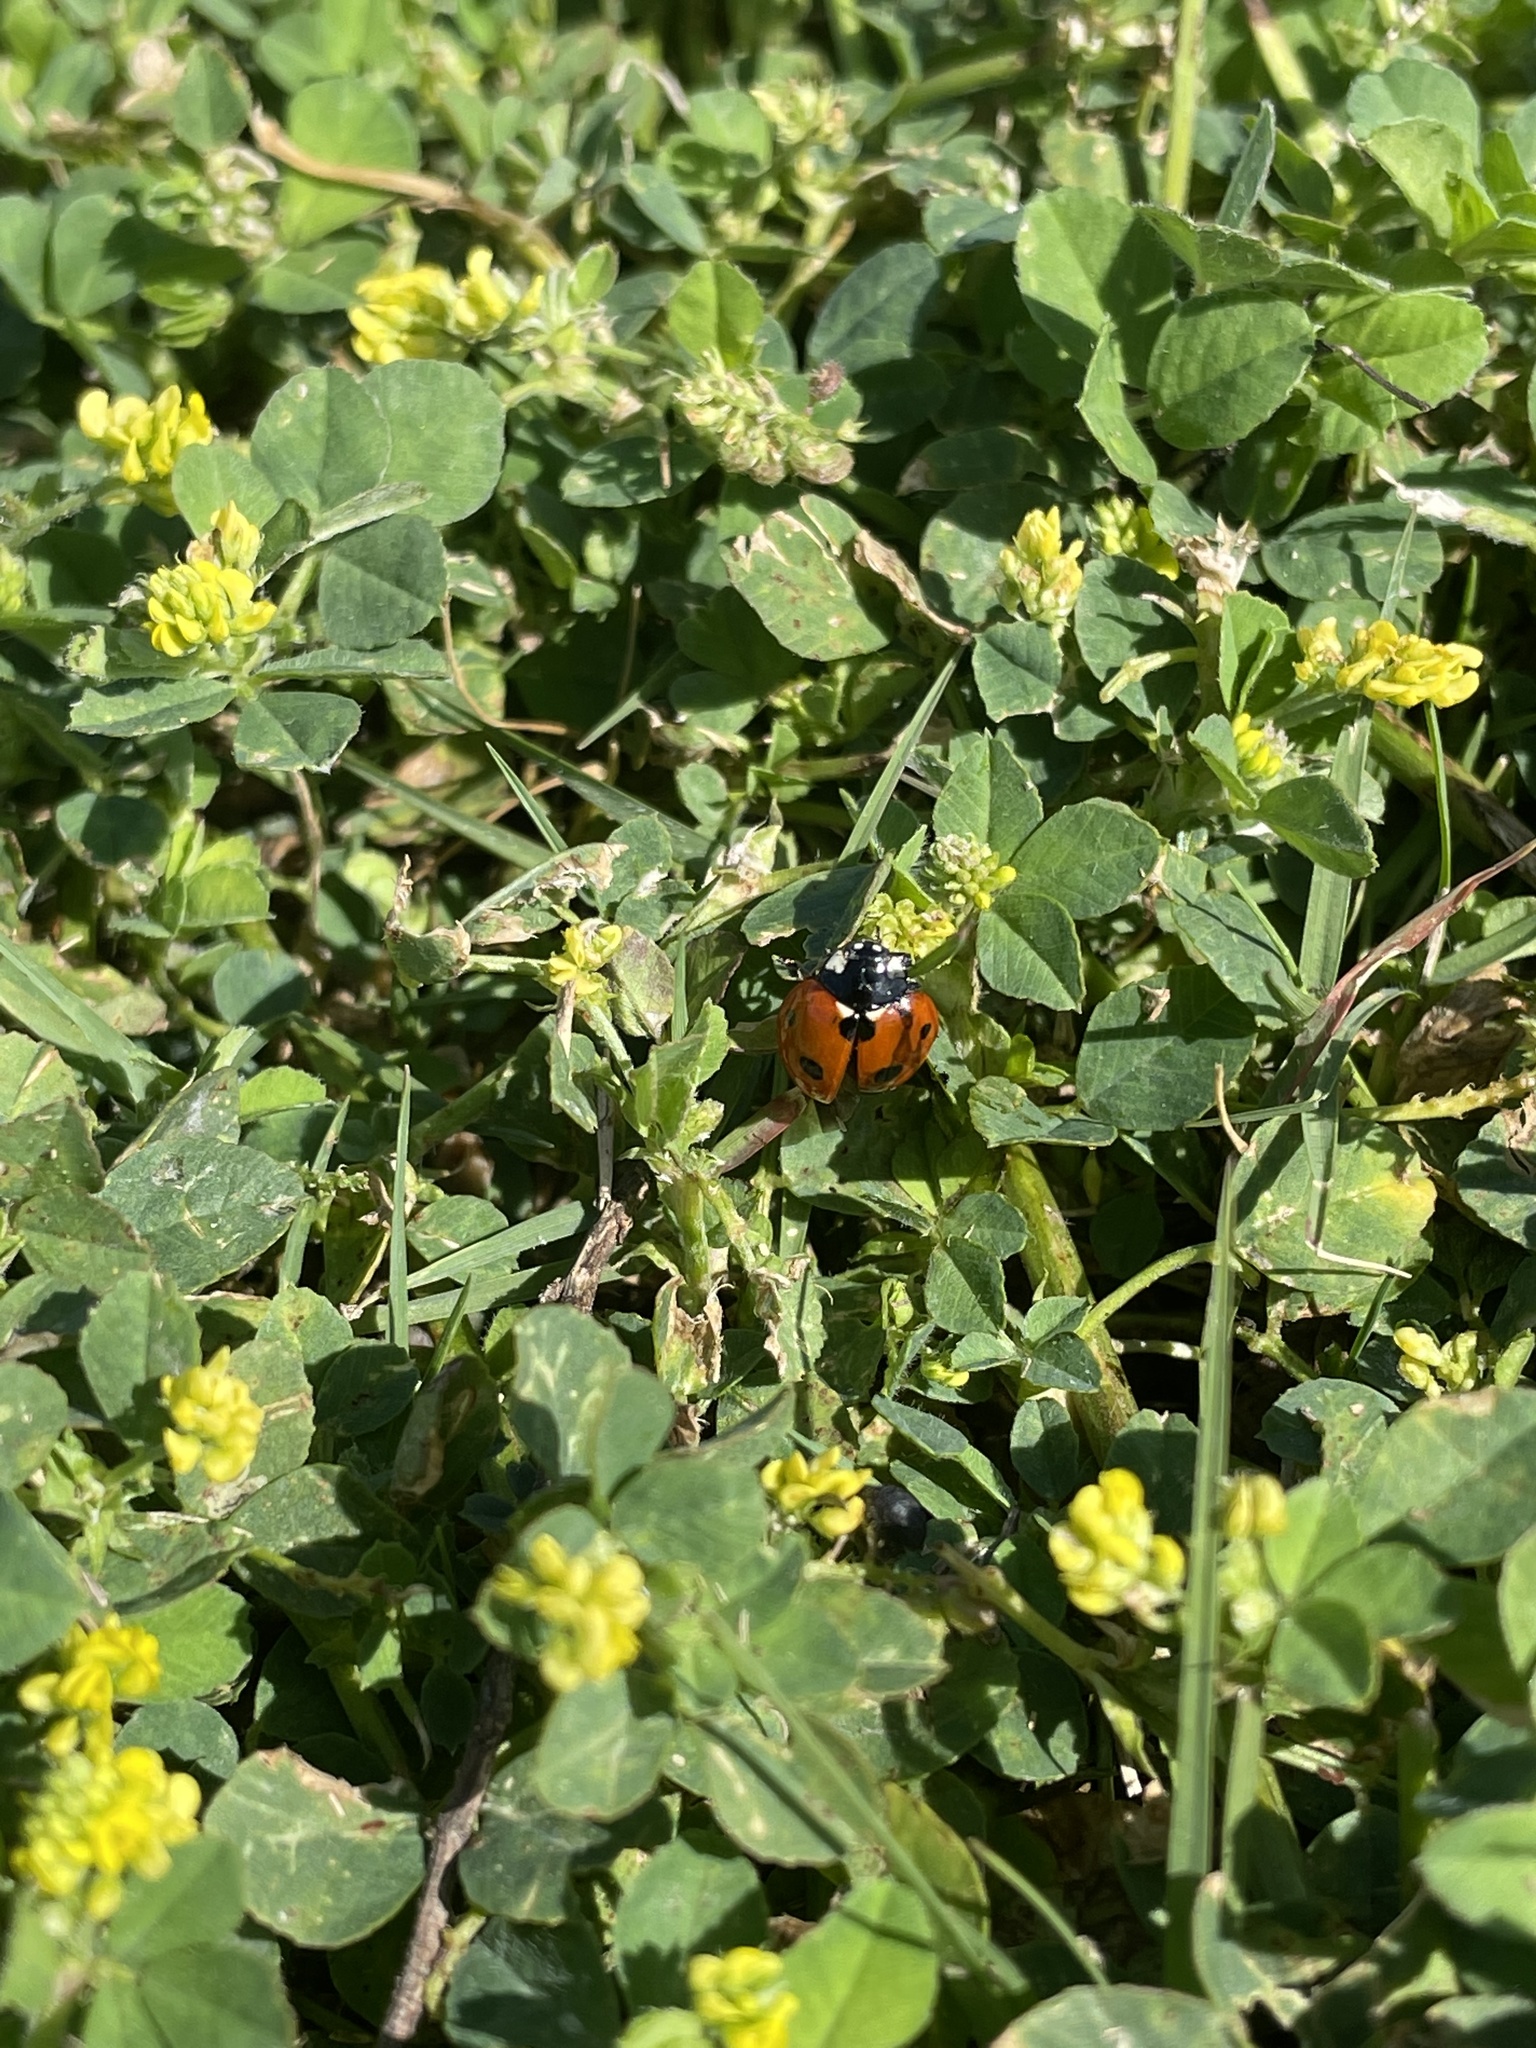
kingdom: Animalia
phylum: Arthropoda
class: Insecta
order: Coleoptera
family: Coccinellidae
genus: Coccinella
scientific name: Coccinella septempunctata
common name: Sevenspotted lady beetle
